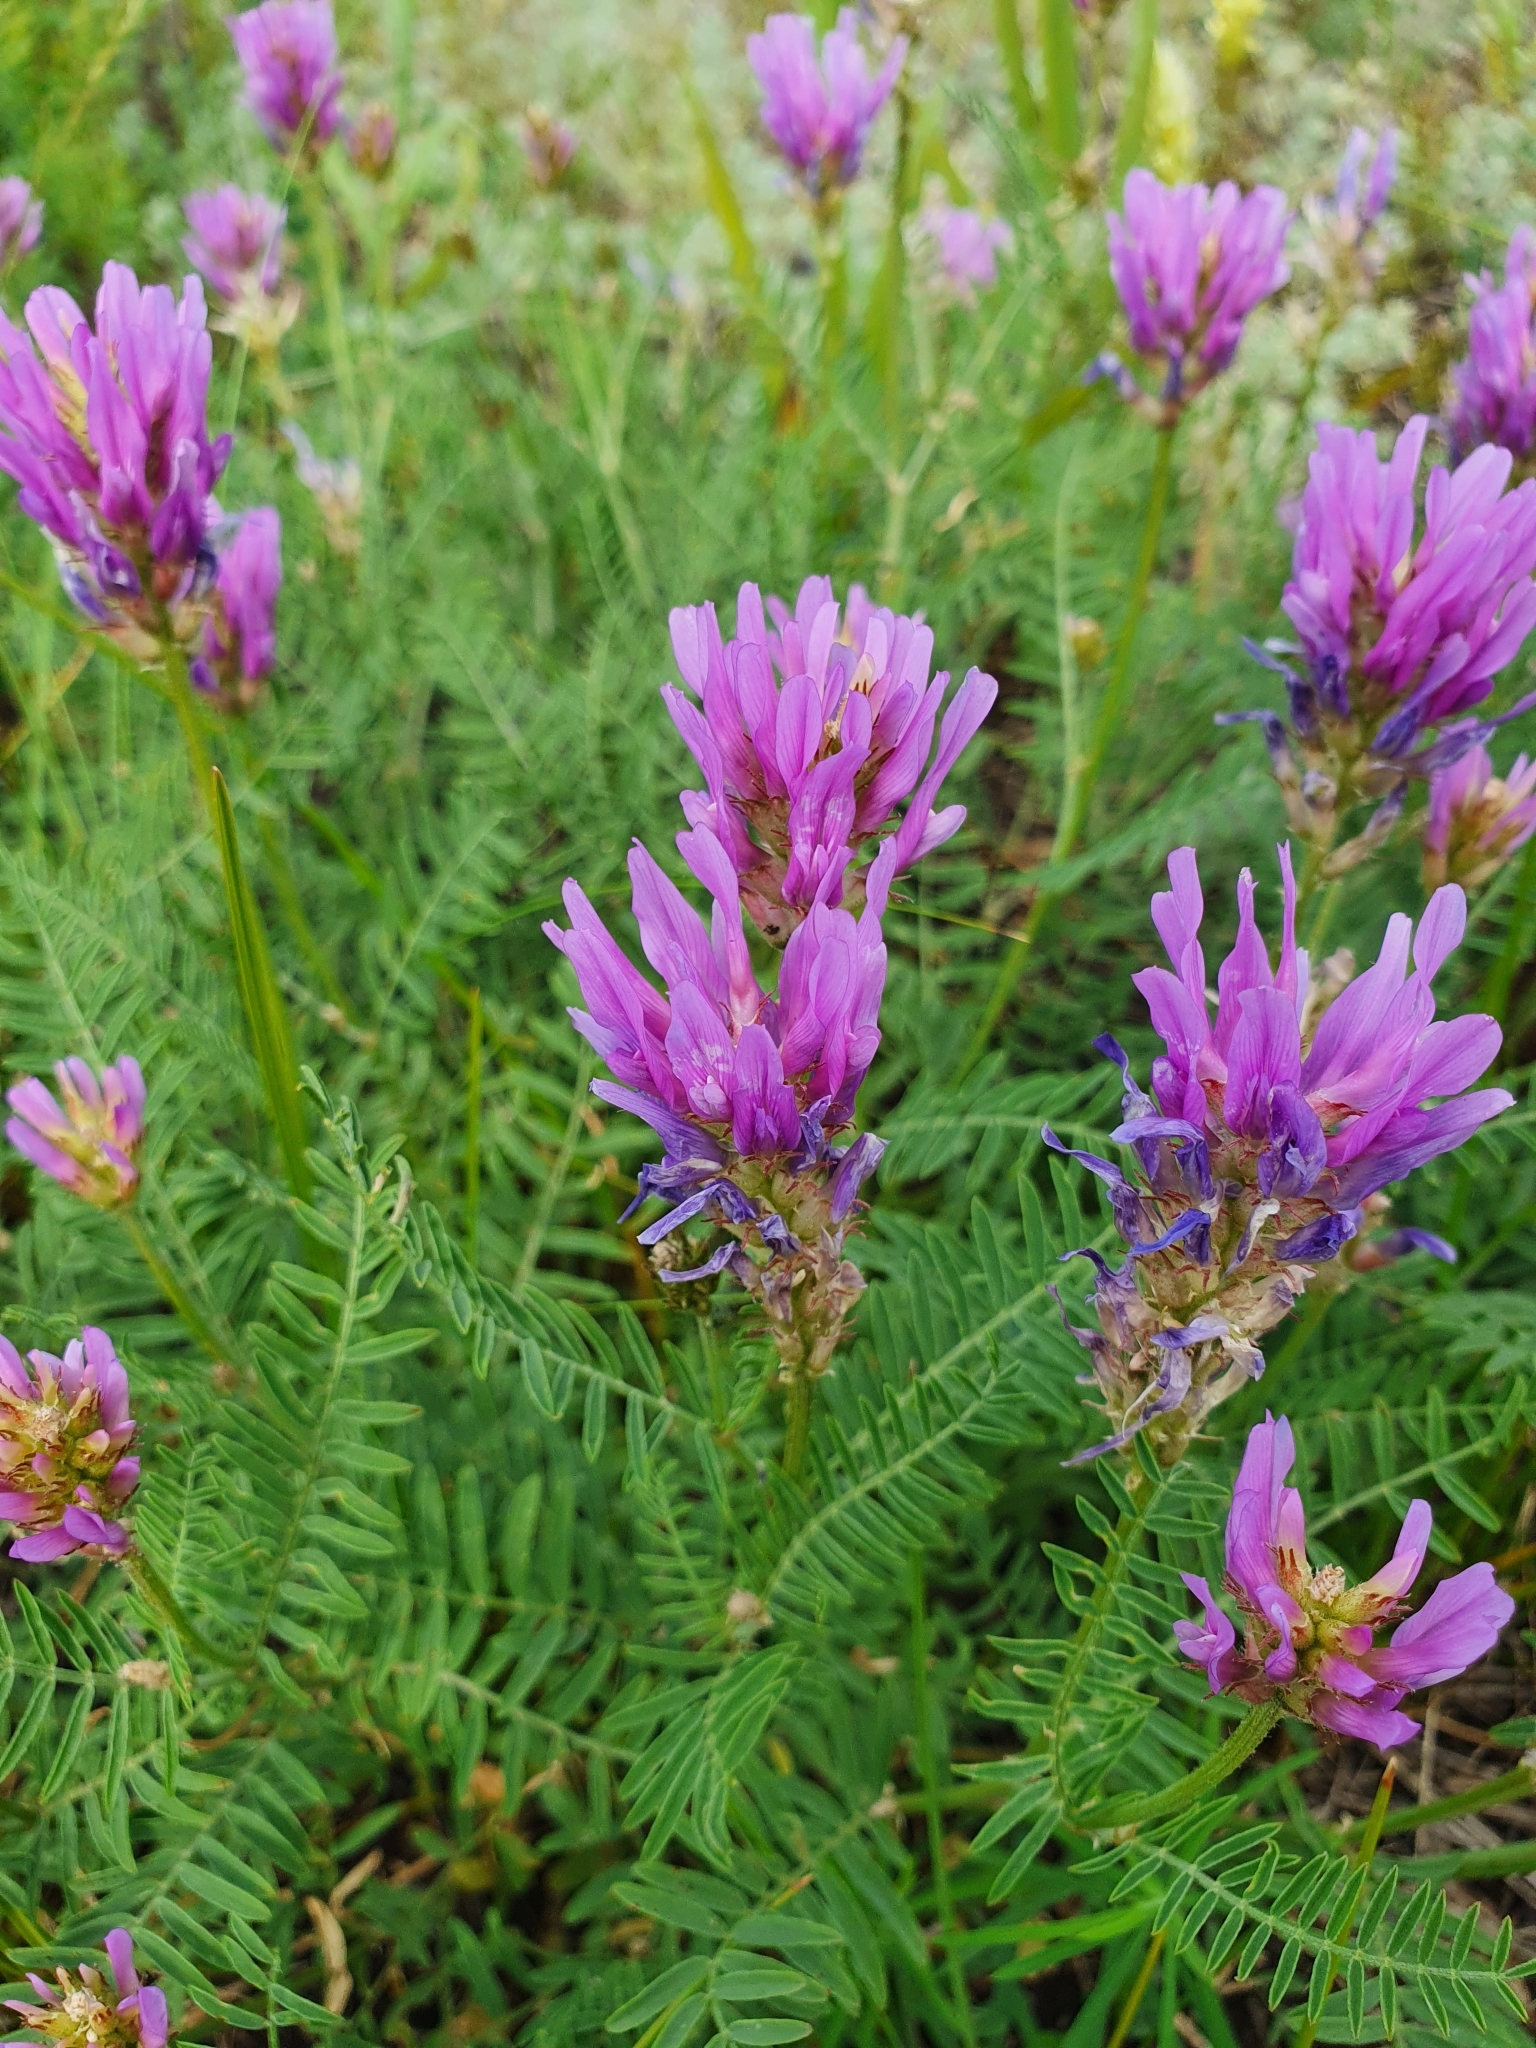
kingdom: Plantae
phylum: Tracheophyta
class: Magnoliopsida
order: Fabales
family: Fabaceae
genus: Astragalus
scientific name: Astragalus onobrychis
